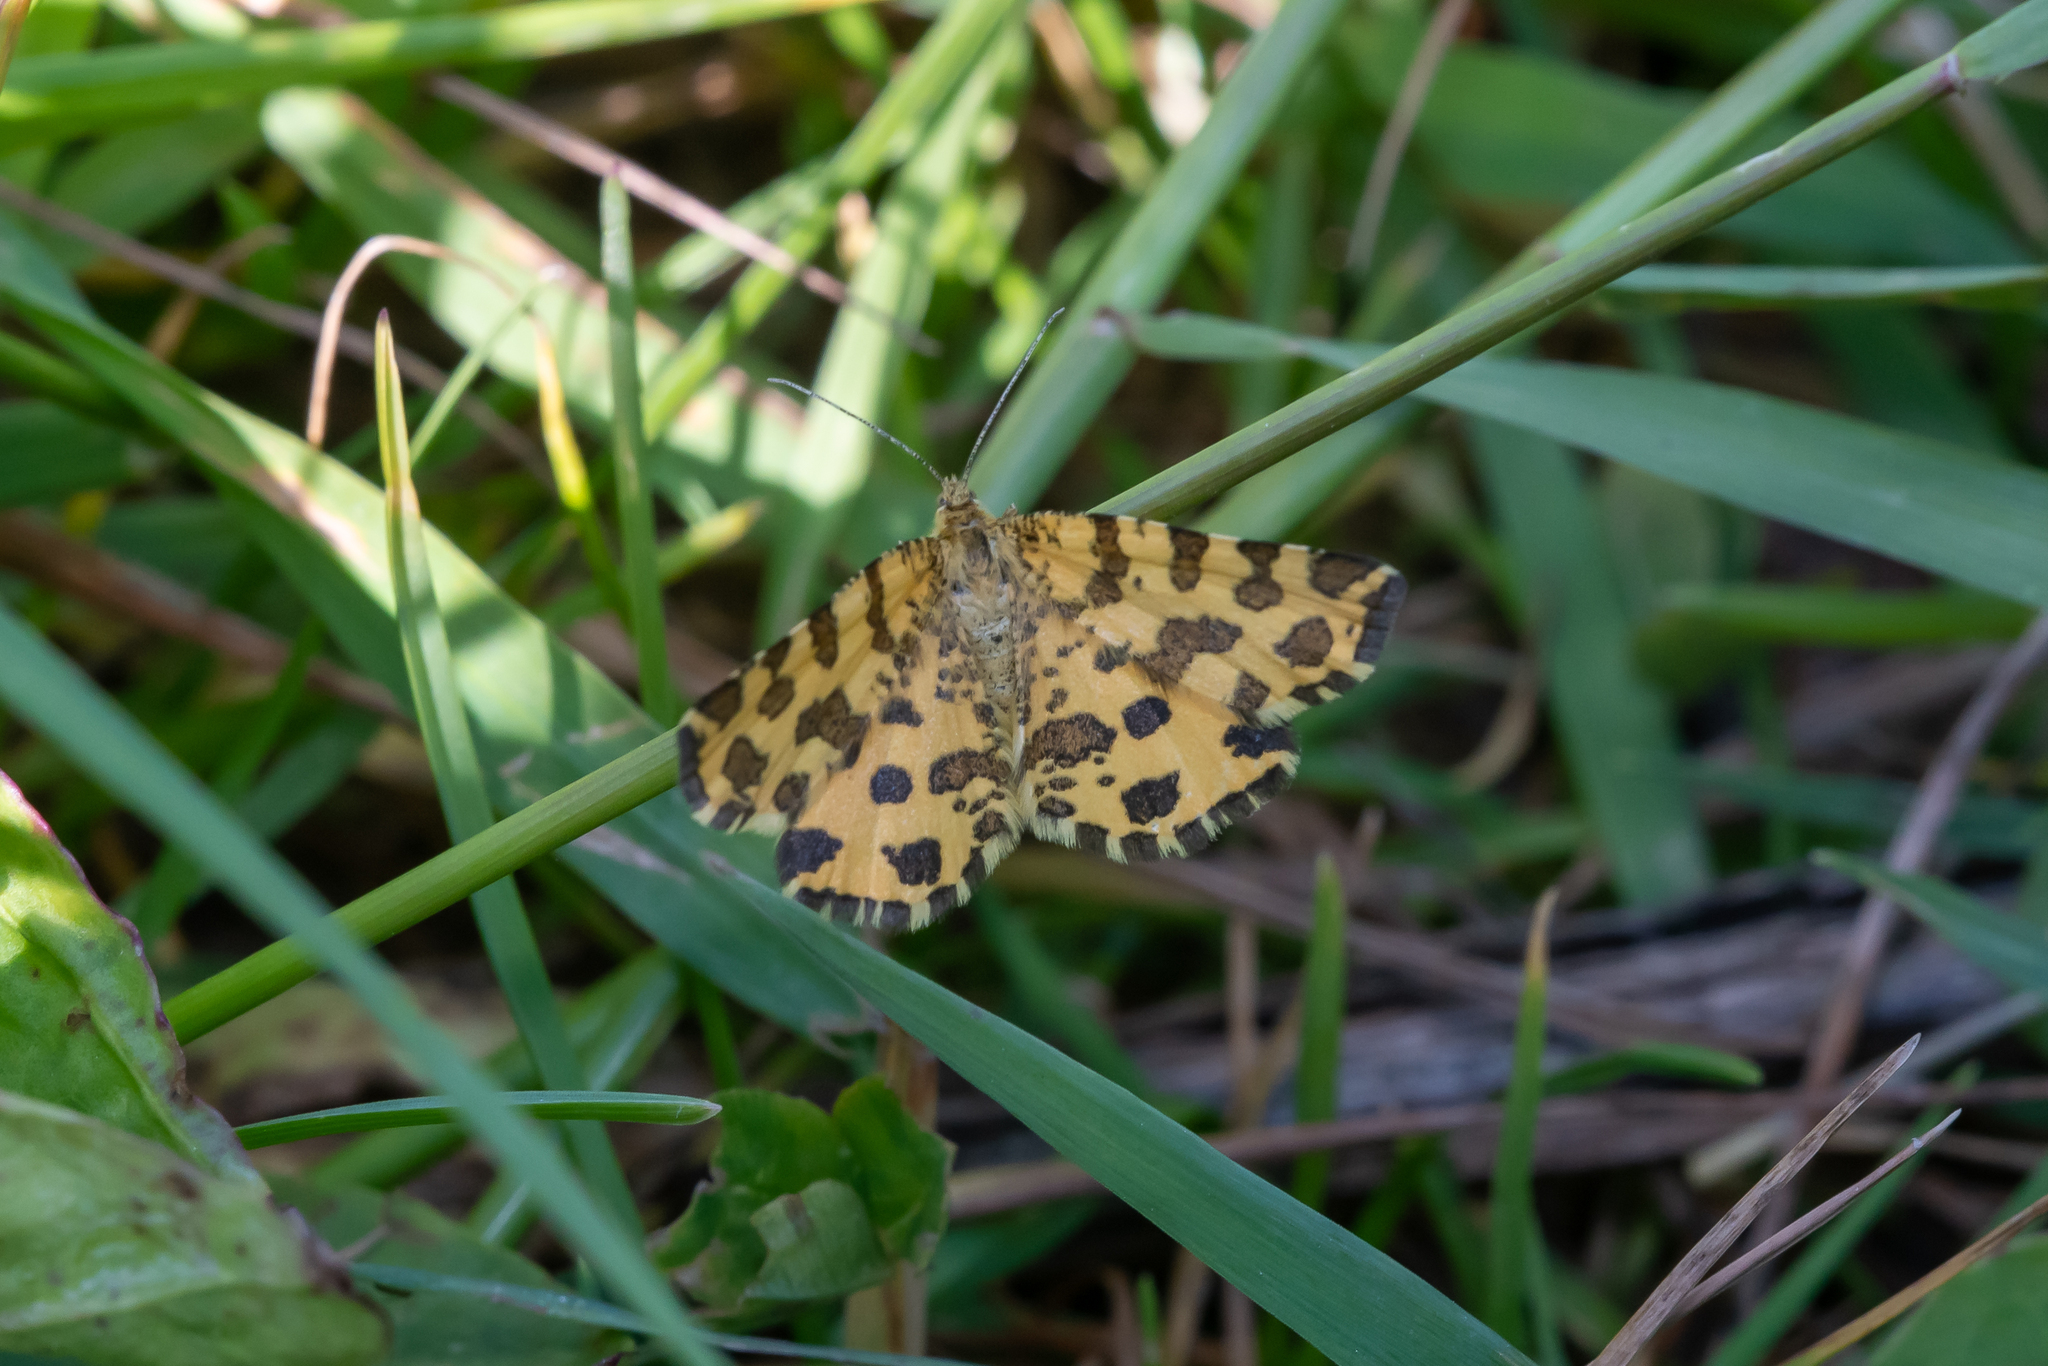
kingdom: Animalia
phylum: Arthropoda
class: Insecta
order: Lepidoptera
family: Geometridae
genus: Pseudopanthera
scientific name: Pseudopanthera macularia
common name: Speckled yellow
